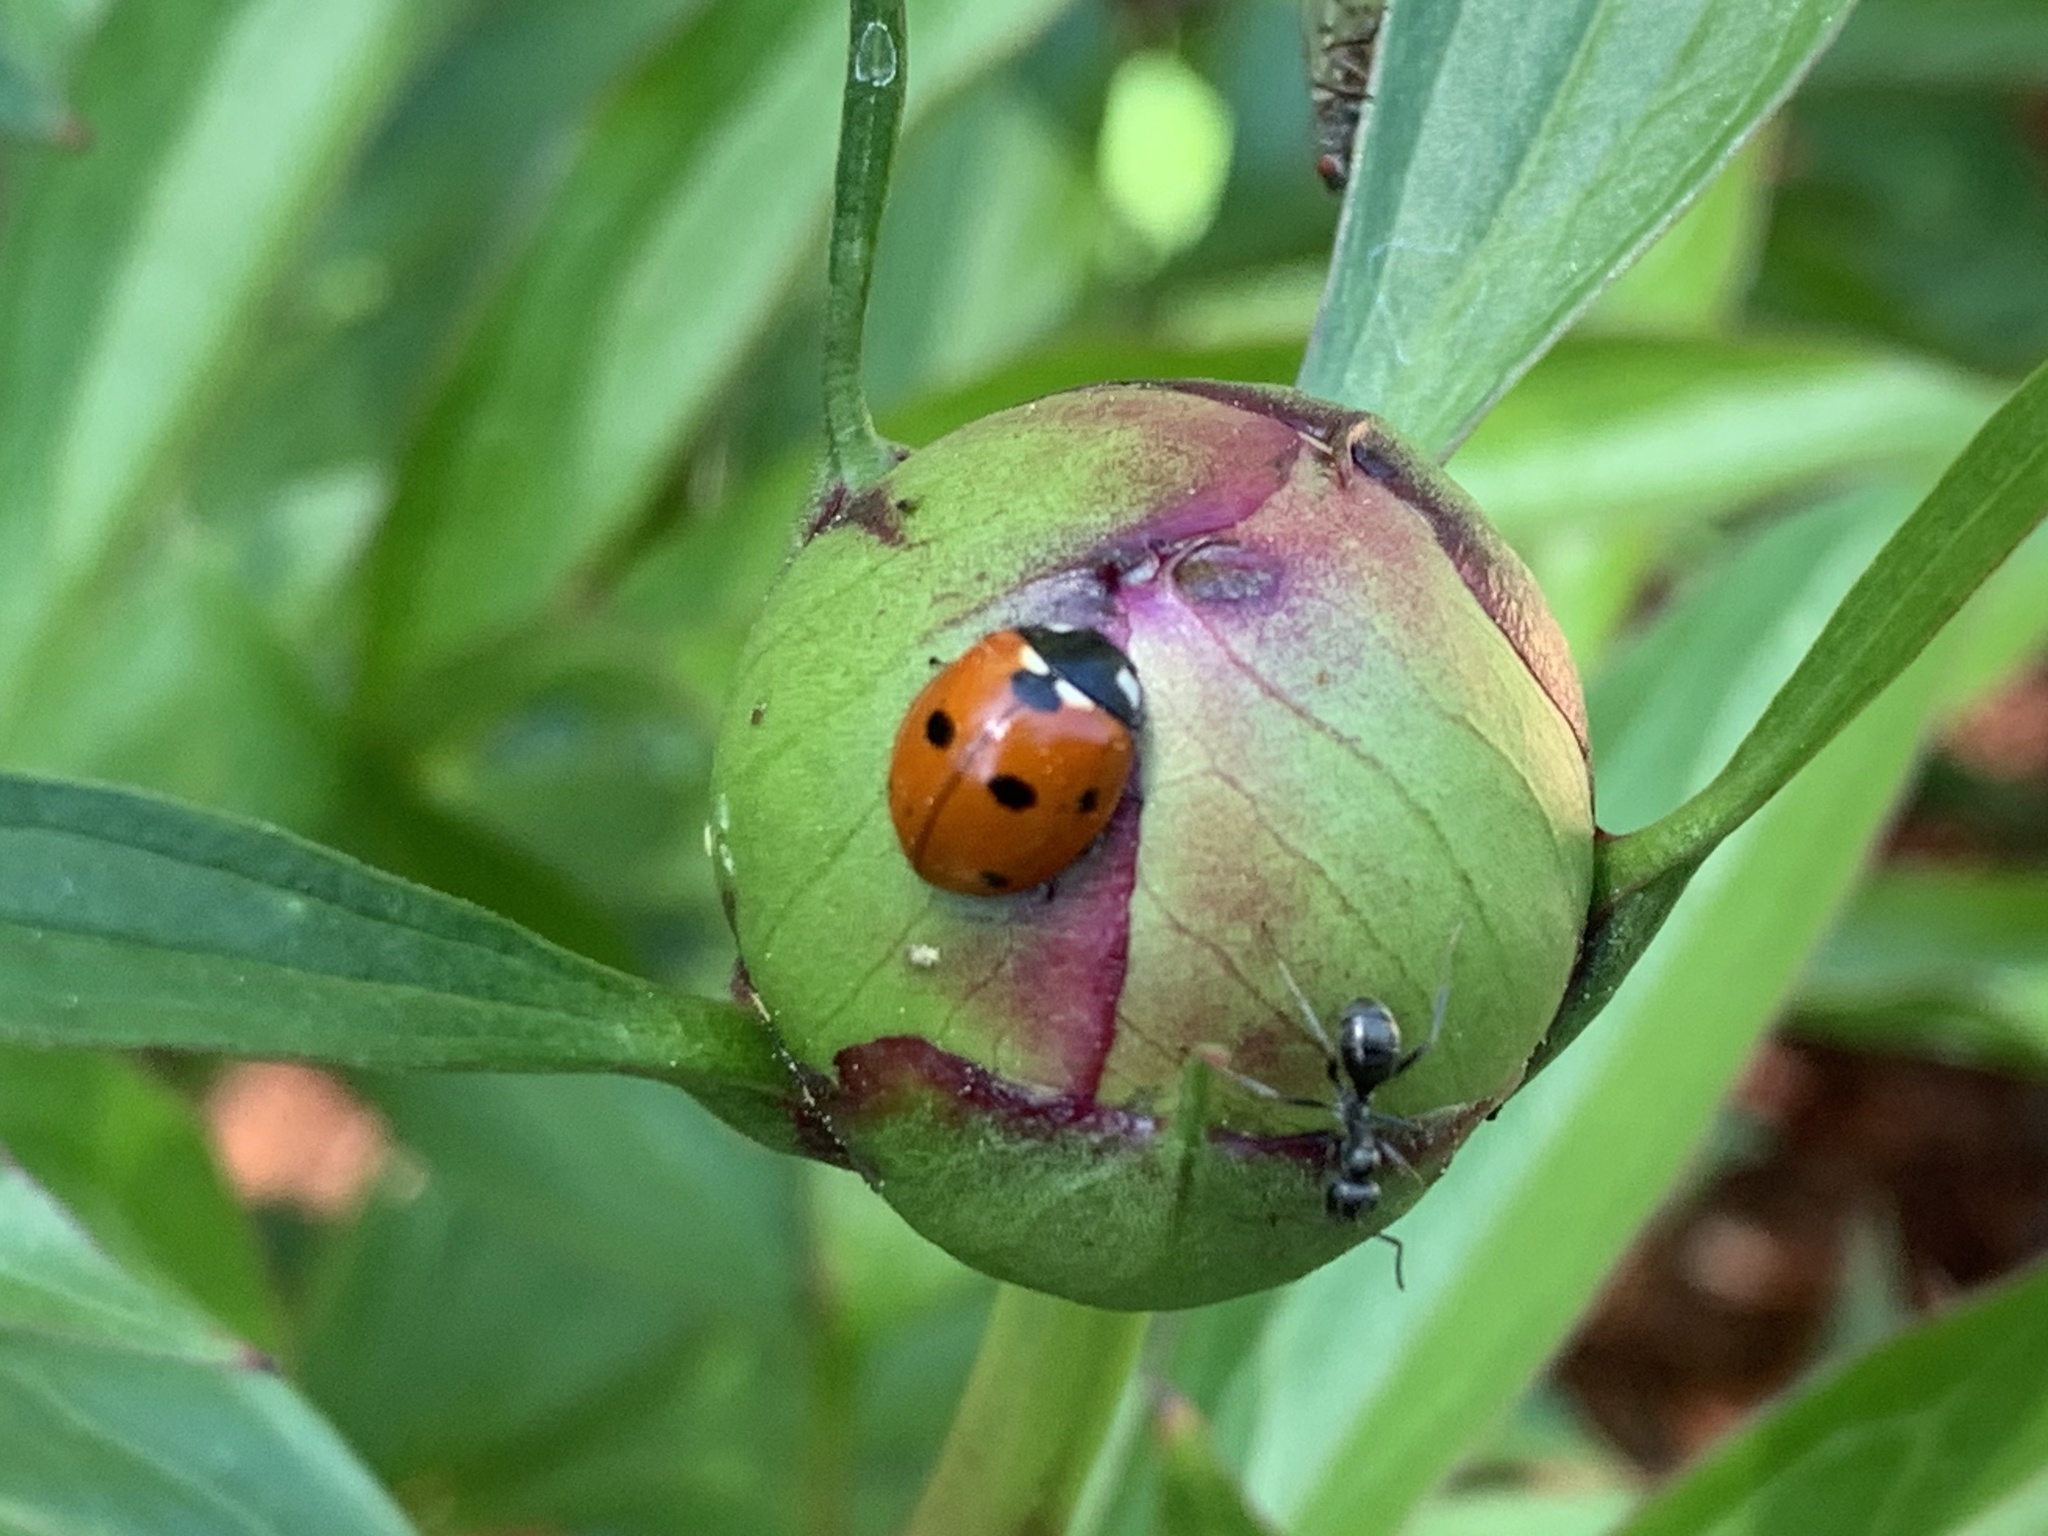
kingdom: Animalia
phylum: Arthropoda
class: Insecta
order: Coleoptera
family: Coccinellidae
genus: Coccinella
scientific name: Coccinella septempunctata
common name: Sevenspotted lady beetle
